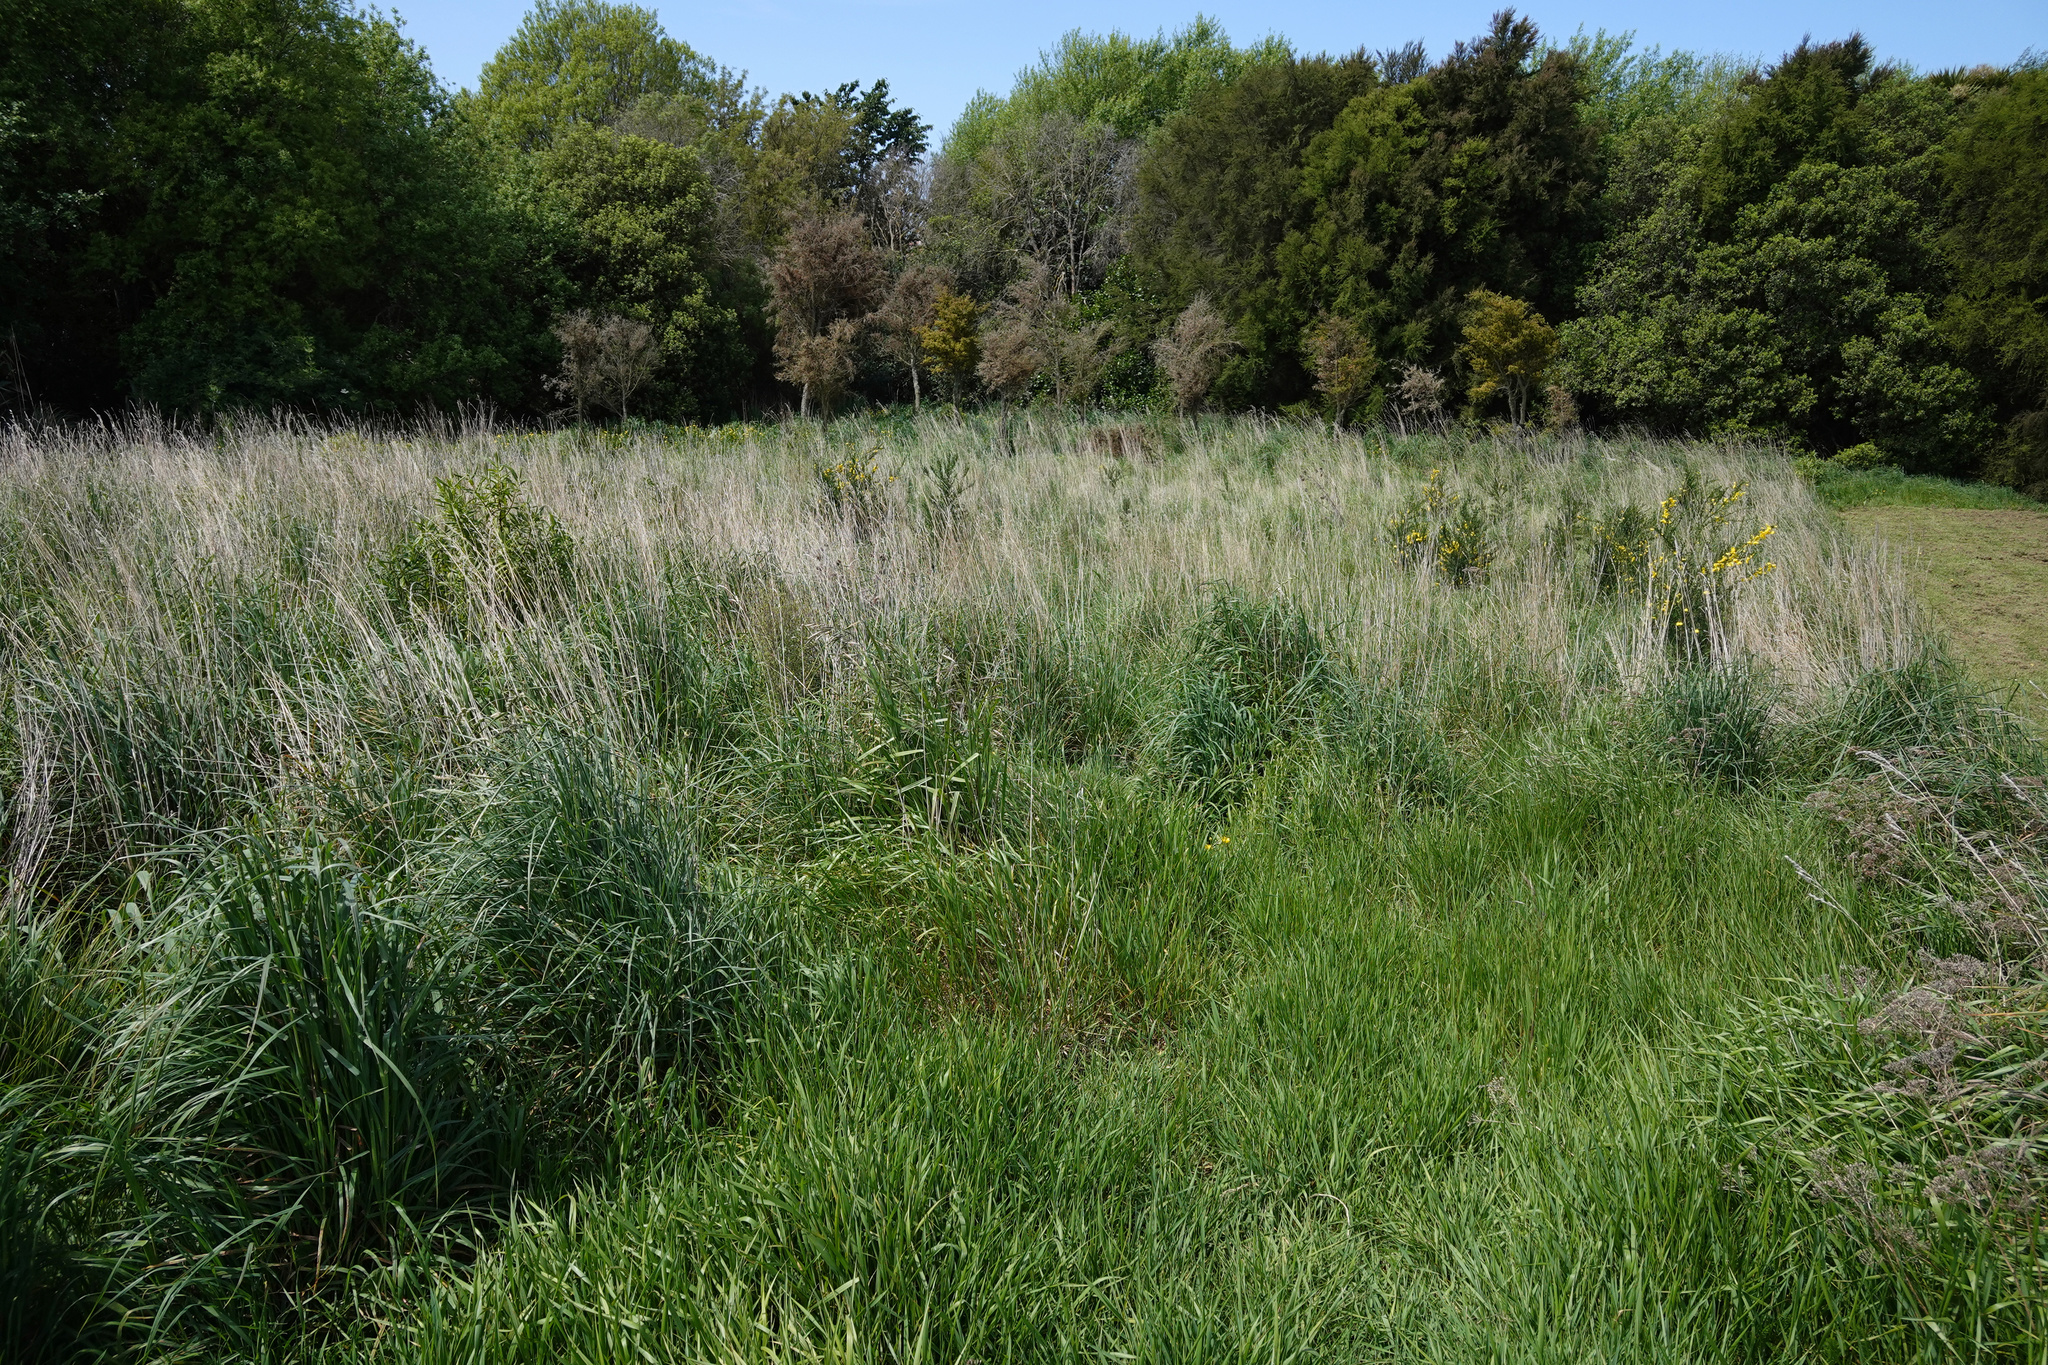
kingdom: Plantae
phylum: Tracheophyta
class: Magnoliopsida
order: Fabales
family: Fabaceae
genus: Cytisus
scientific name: Cytisus scoparius
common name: Scotch broom
